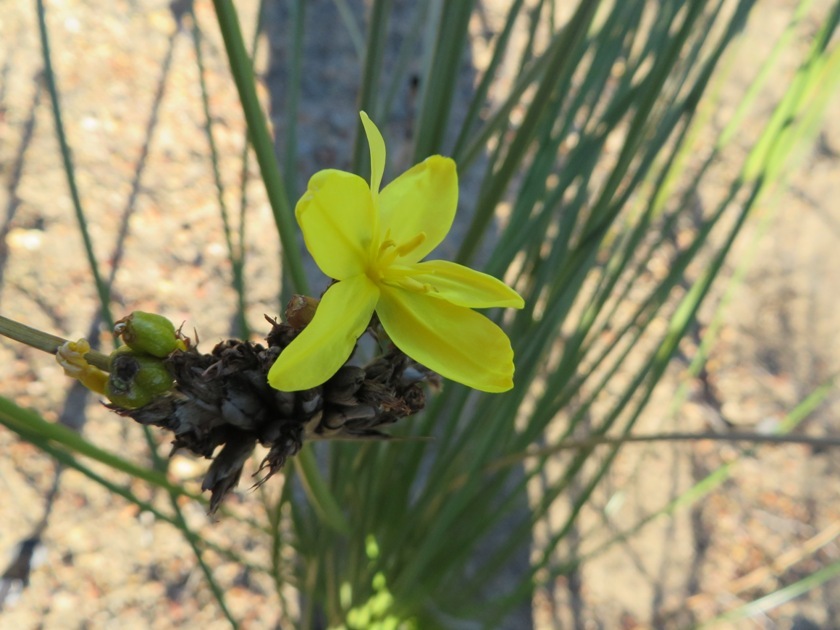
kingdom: Plantae
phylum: Tracheophyta
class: Liliopsida
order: Asparagales
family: Iridaceae
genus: Bobartia
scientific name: Bobartia indica
